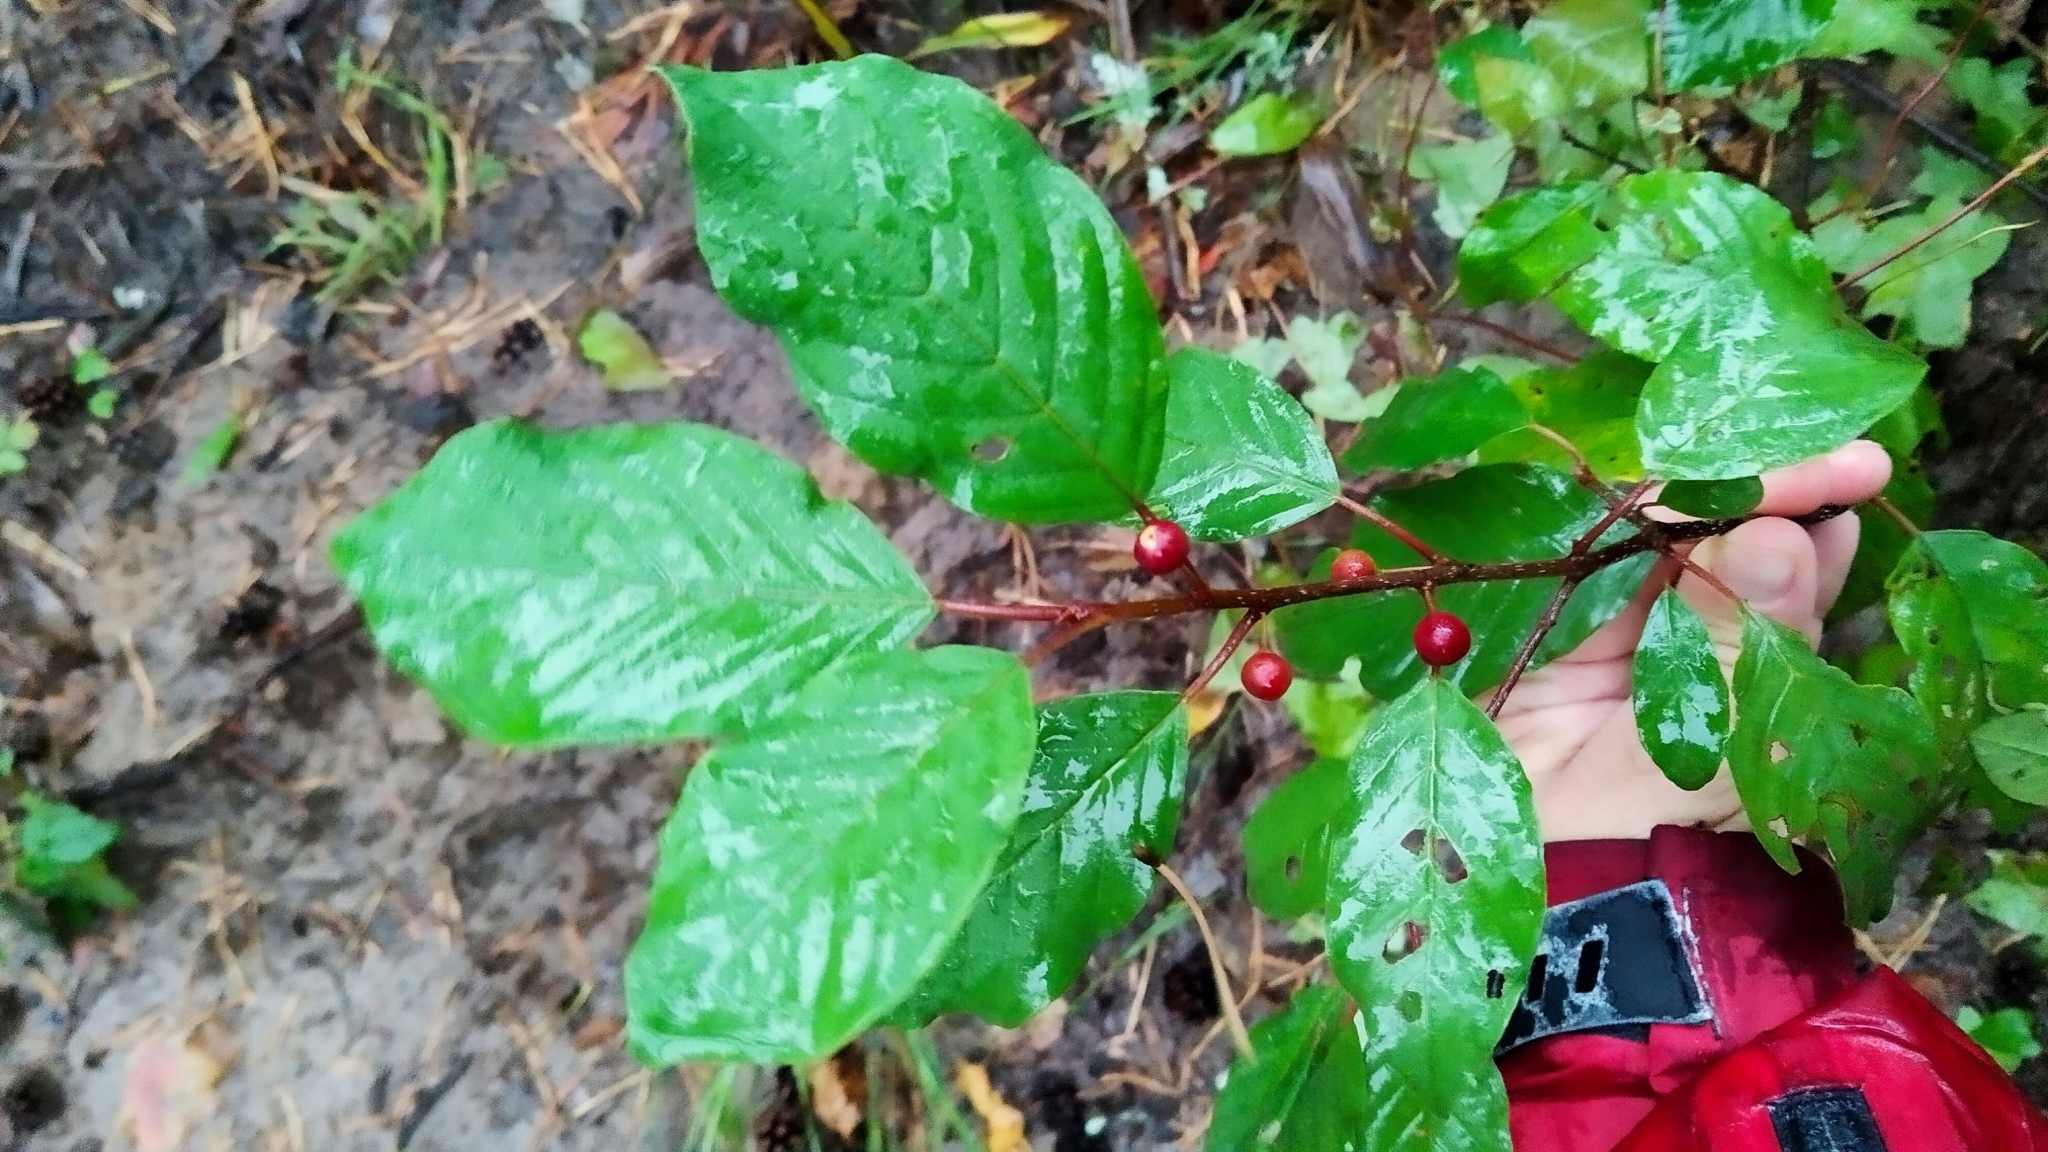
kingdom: Plantae
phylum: Tracheophyta
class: Magnoliopsida
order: Rosales
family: Rhamnaceae
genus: Frangula
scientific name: Frangula alnus
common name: Alder buckthorn
